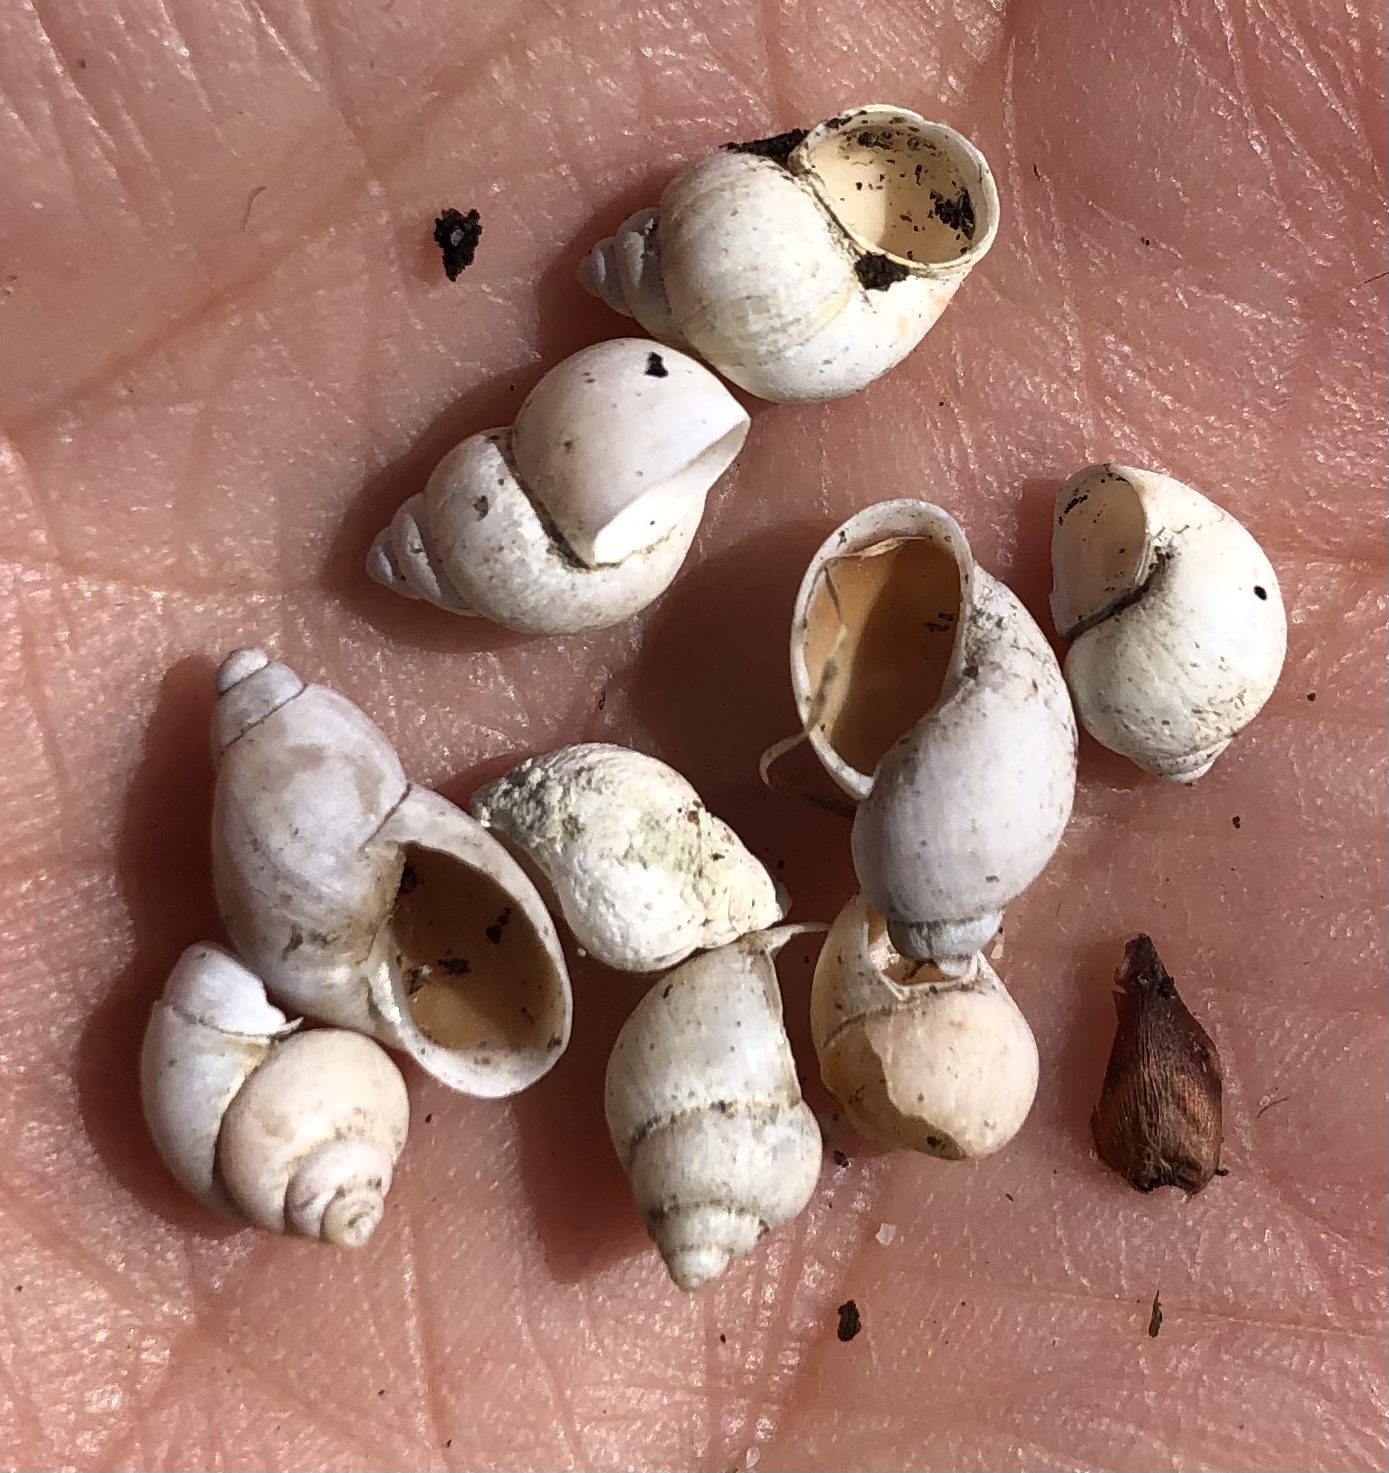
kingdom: Animalia
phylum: Mollusca
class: Gastropoda
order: Littorinimorpha
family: Bithyniidae
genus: Bithynia
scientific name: Bithynia tentaculata
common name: Common bithynia
